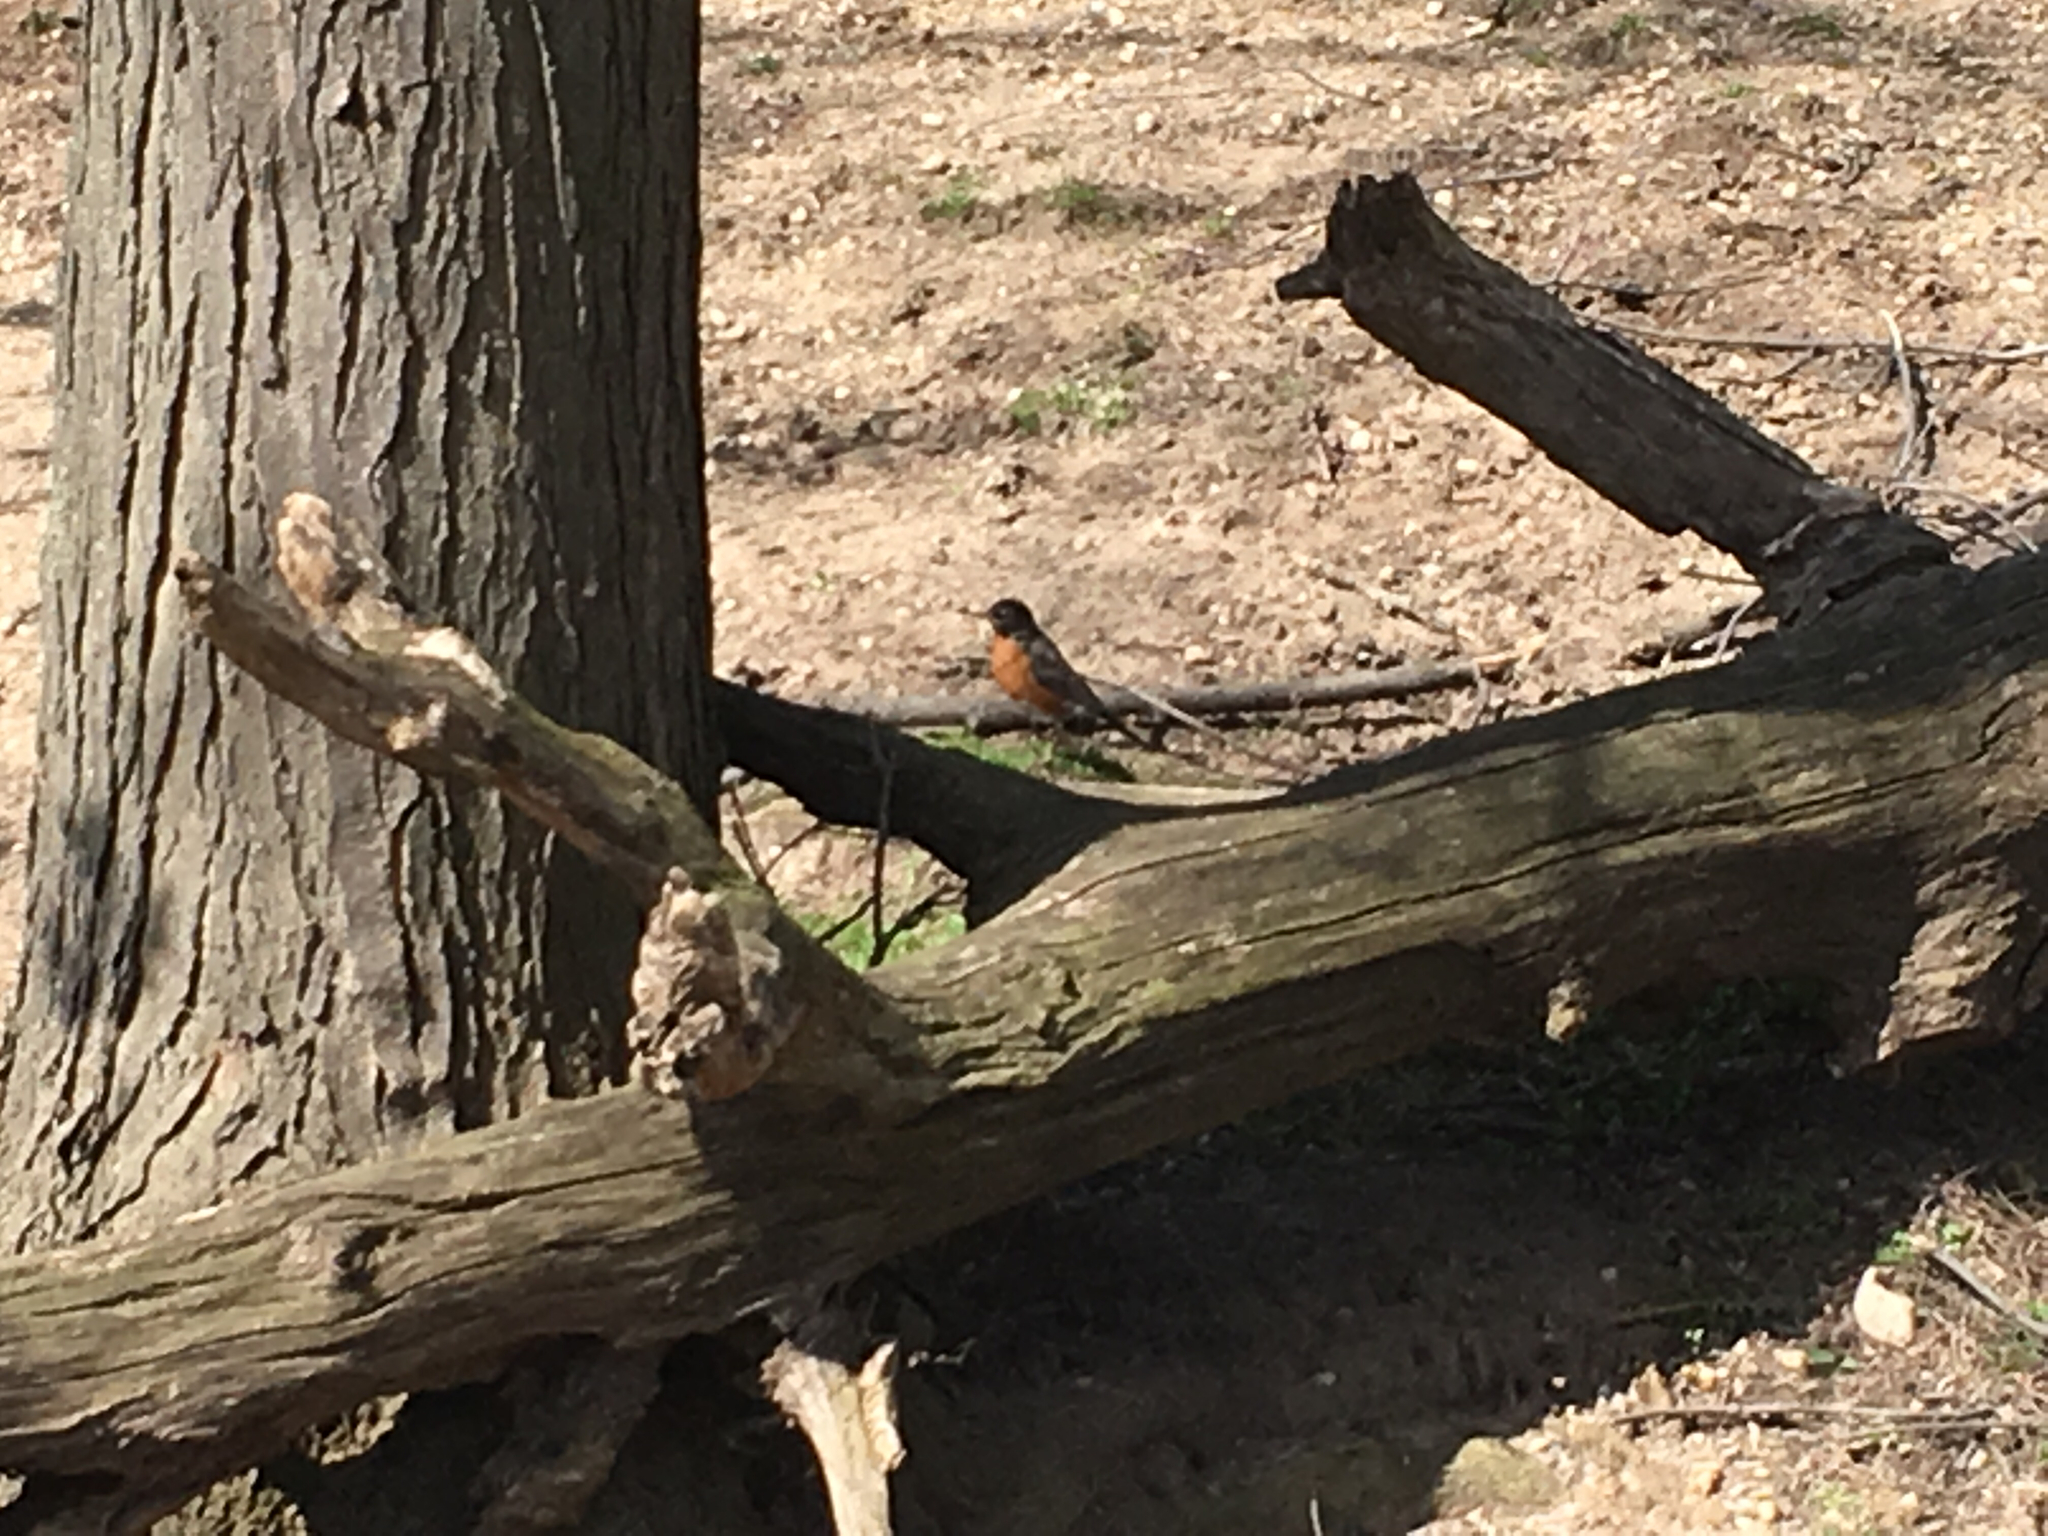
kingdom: Animalia
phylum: Chordata
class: Aves
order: Passeriformes
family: Turdidae
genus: Turdus
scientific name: Turdus migratorius
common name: American robin
